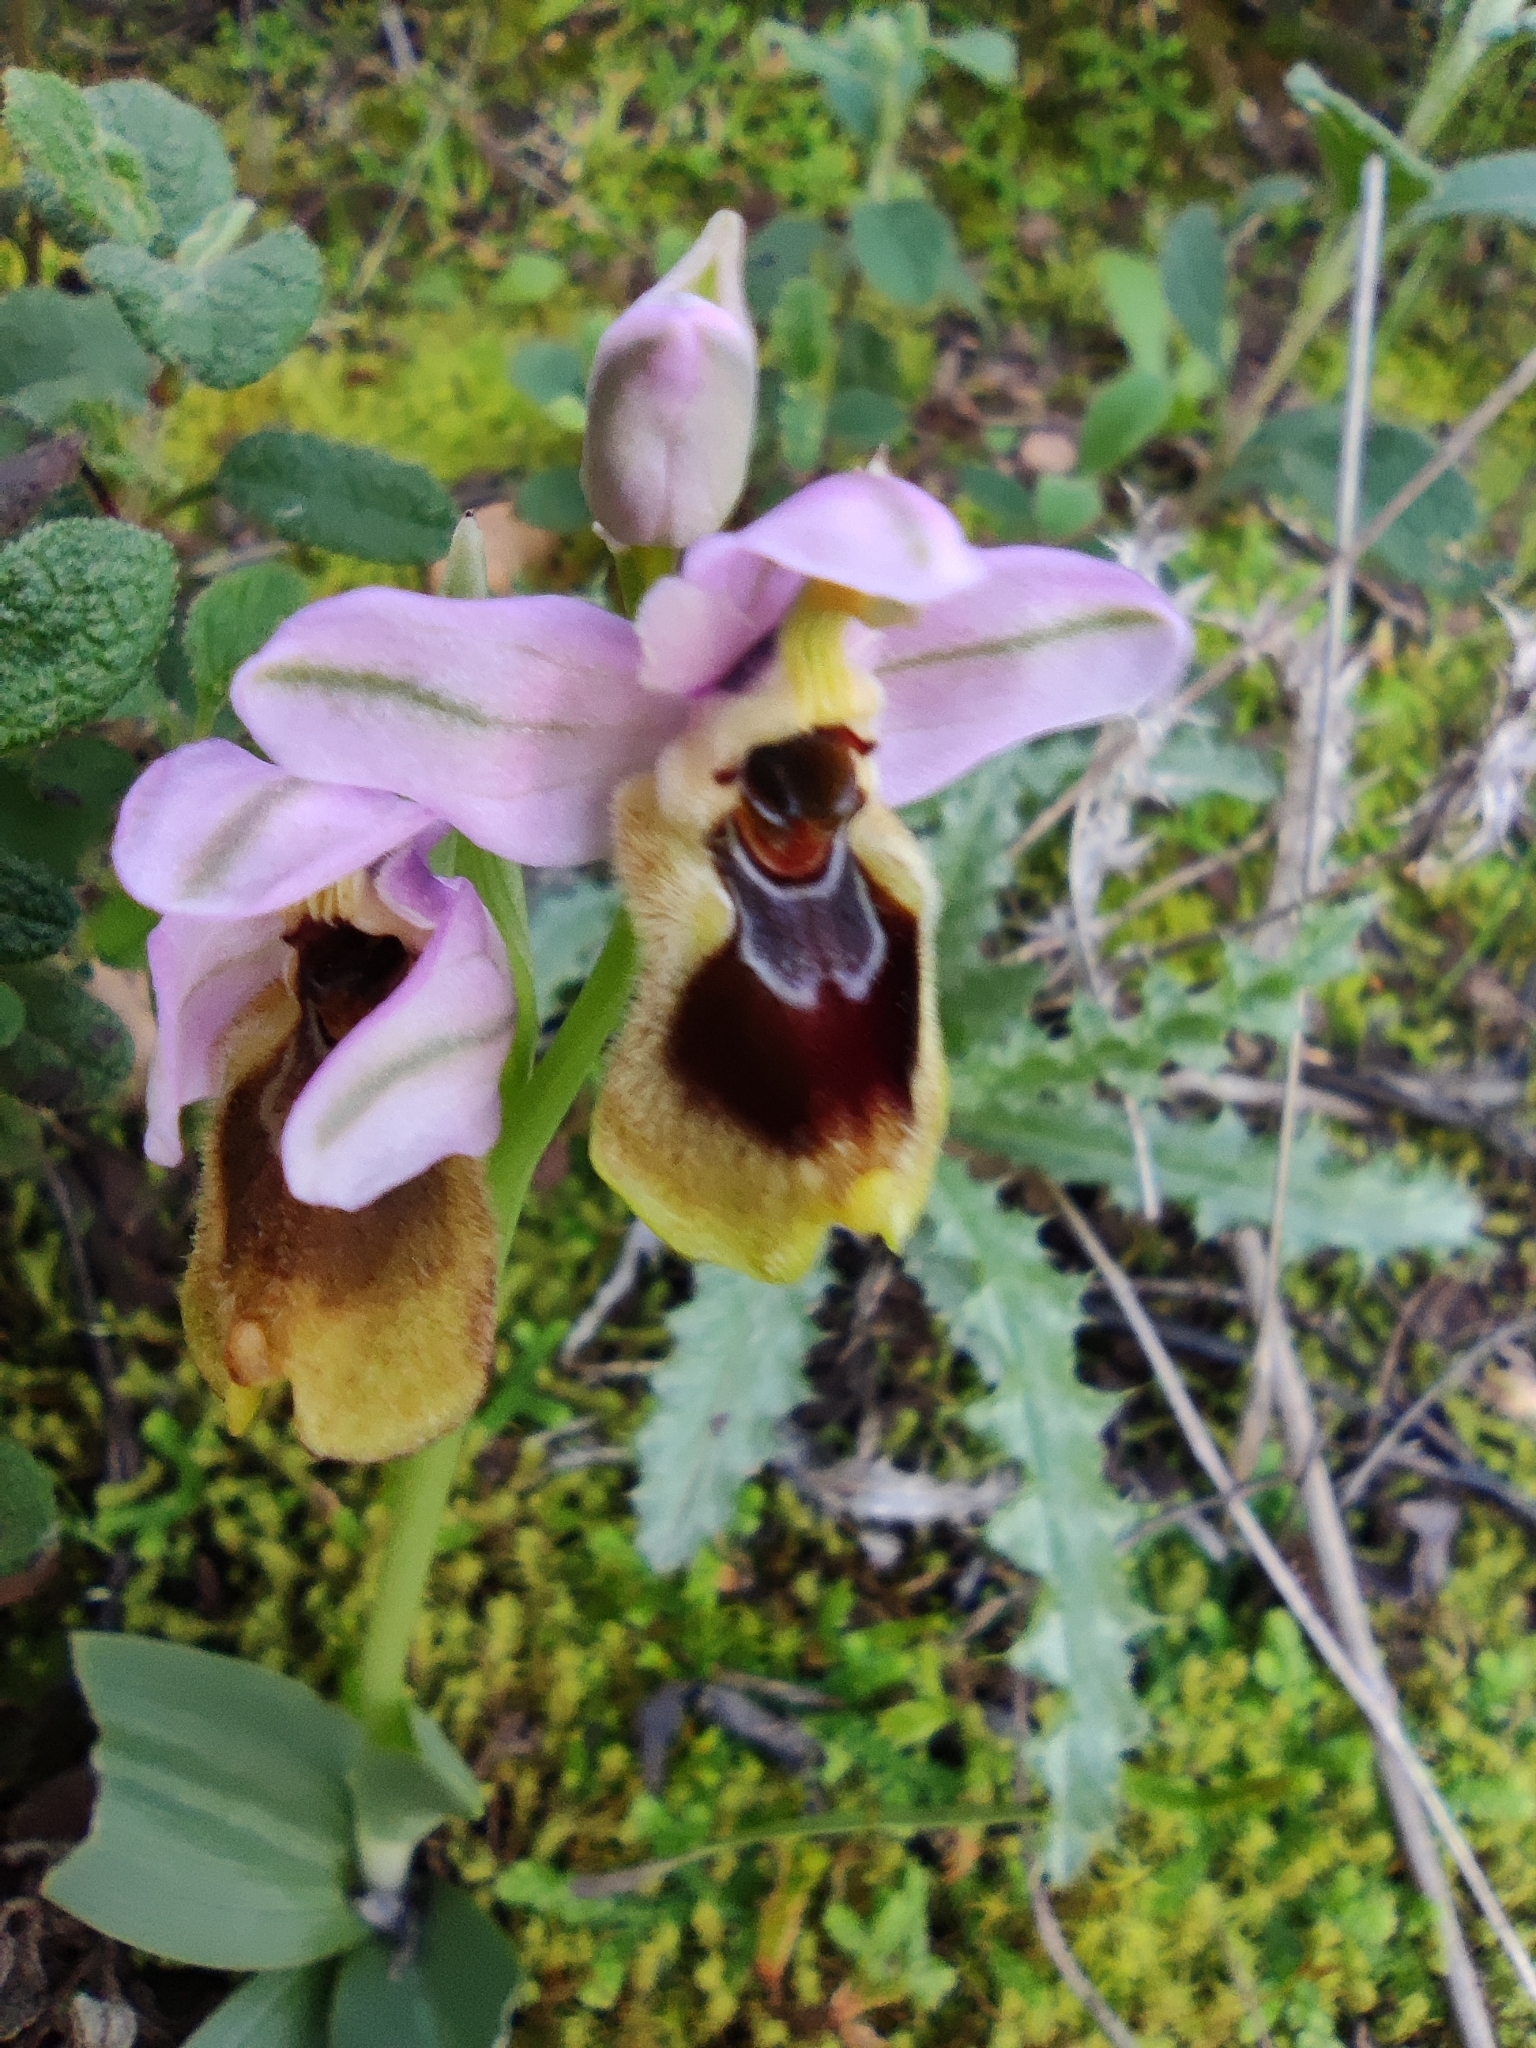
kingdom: Plantae
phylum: Tracheophyta
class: Liliopsida
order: Asparagales
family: Orchidaceae
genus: Ophrys
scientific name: Ophrys tenthredinifera
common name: Sawfly orchid
